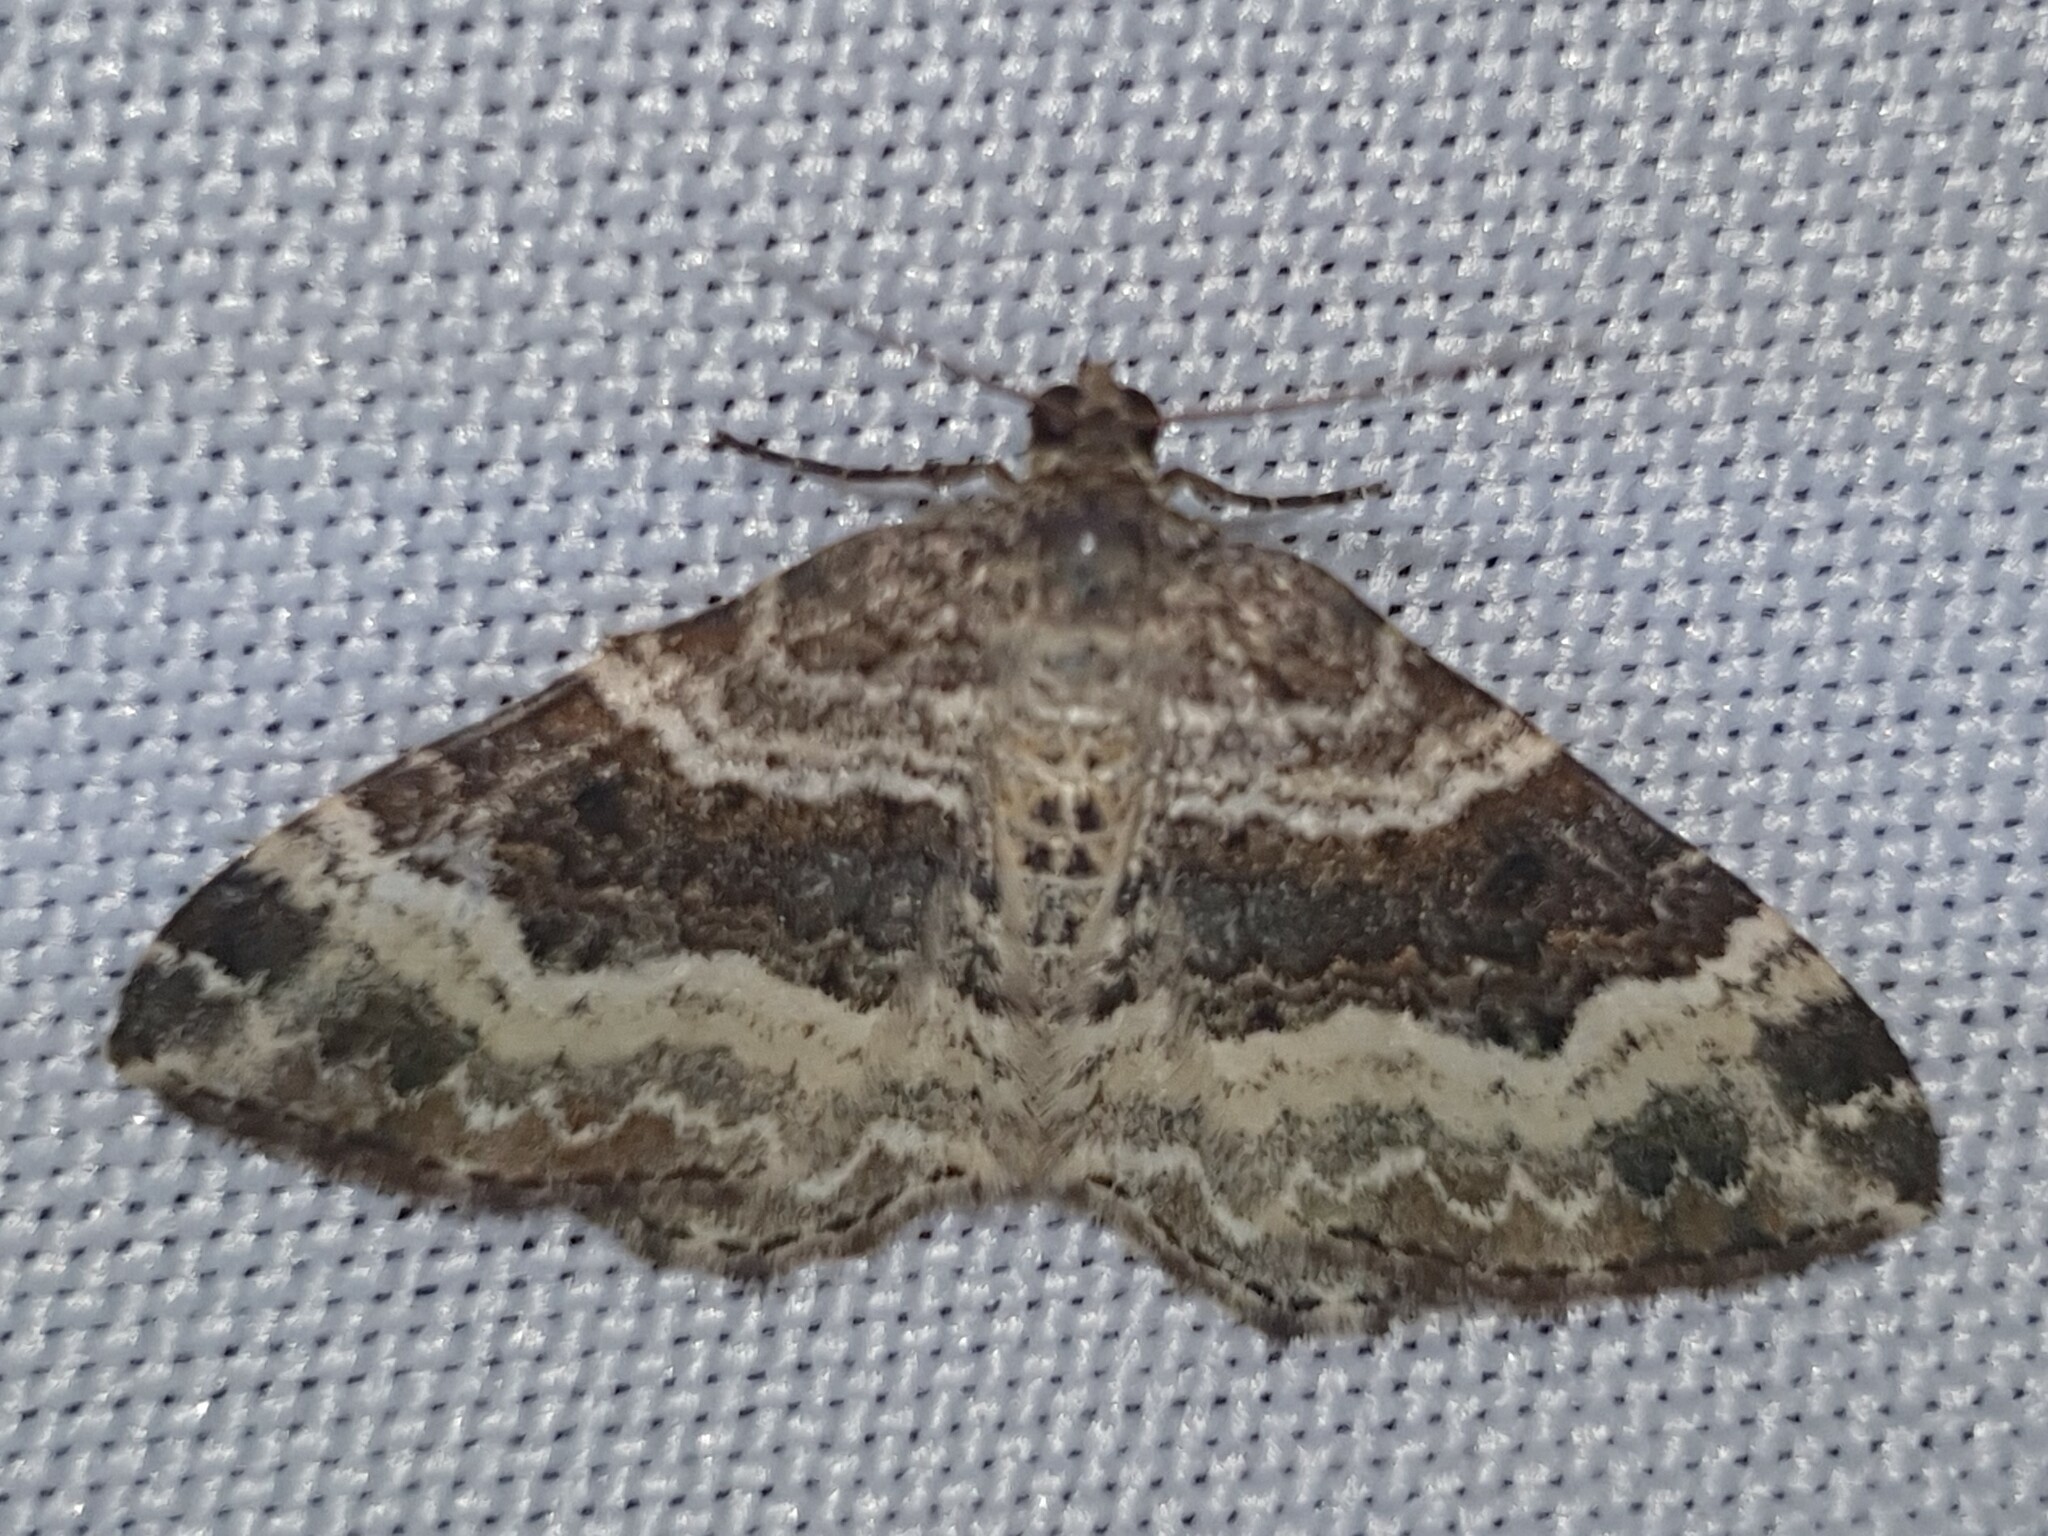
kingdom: Animalia
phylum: Arthropoda
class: Insecta
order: Lepidoptera
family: Geometridae
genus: Epirrhoe
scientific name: Epirrhoe alternata
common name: Common carpet
